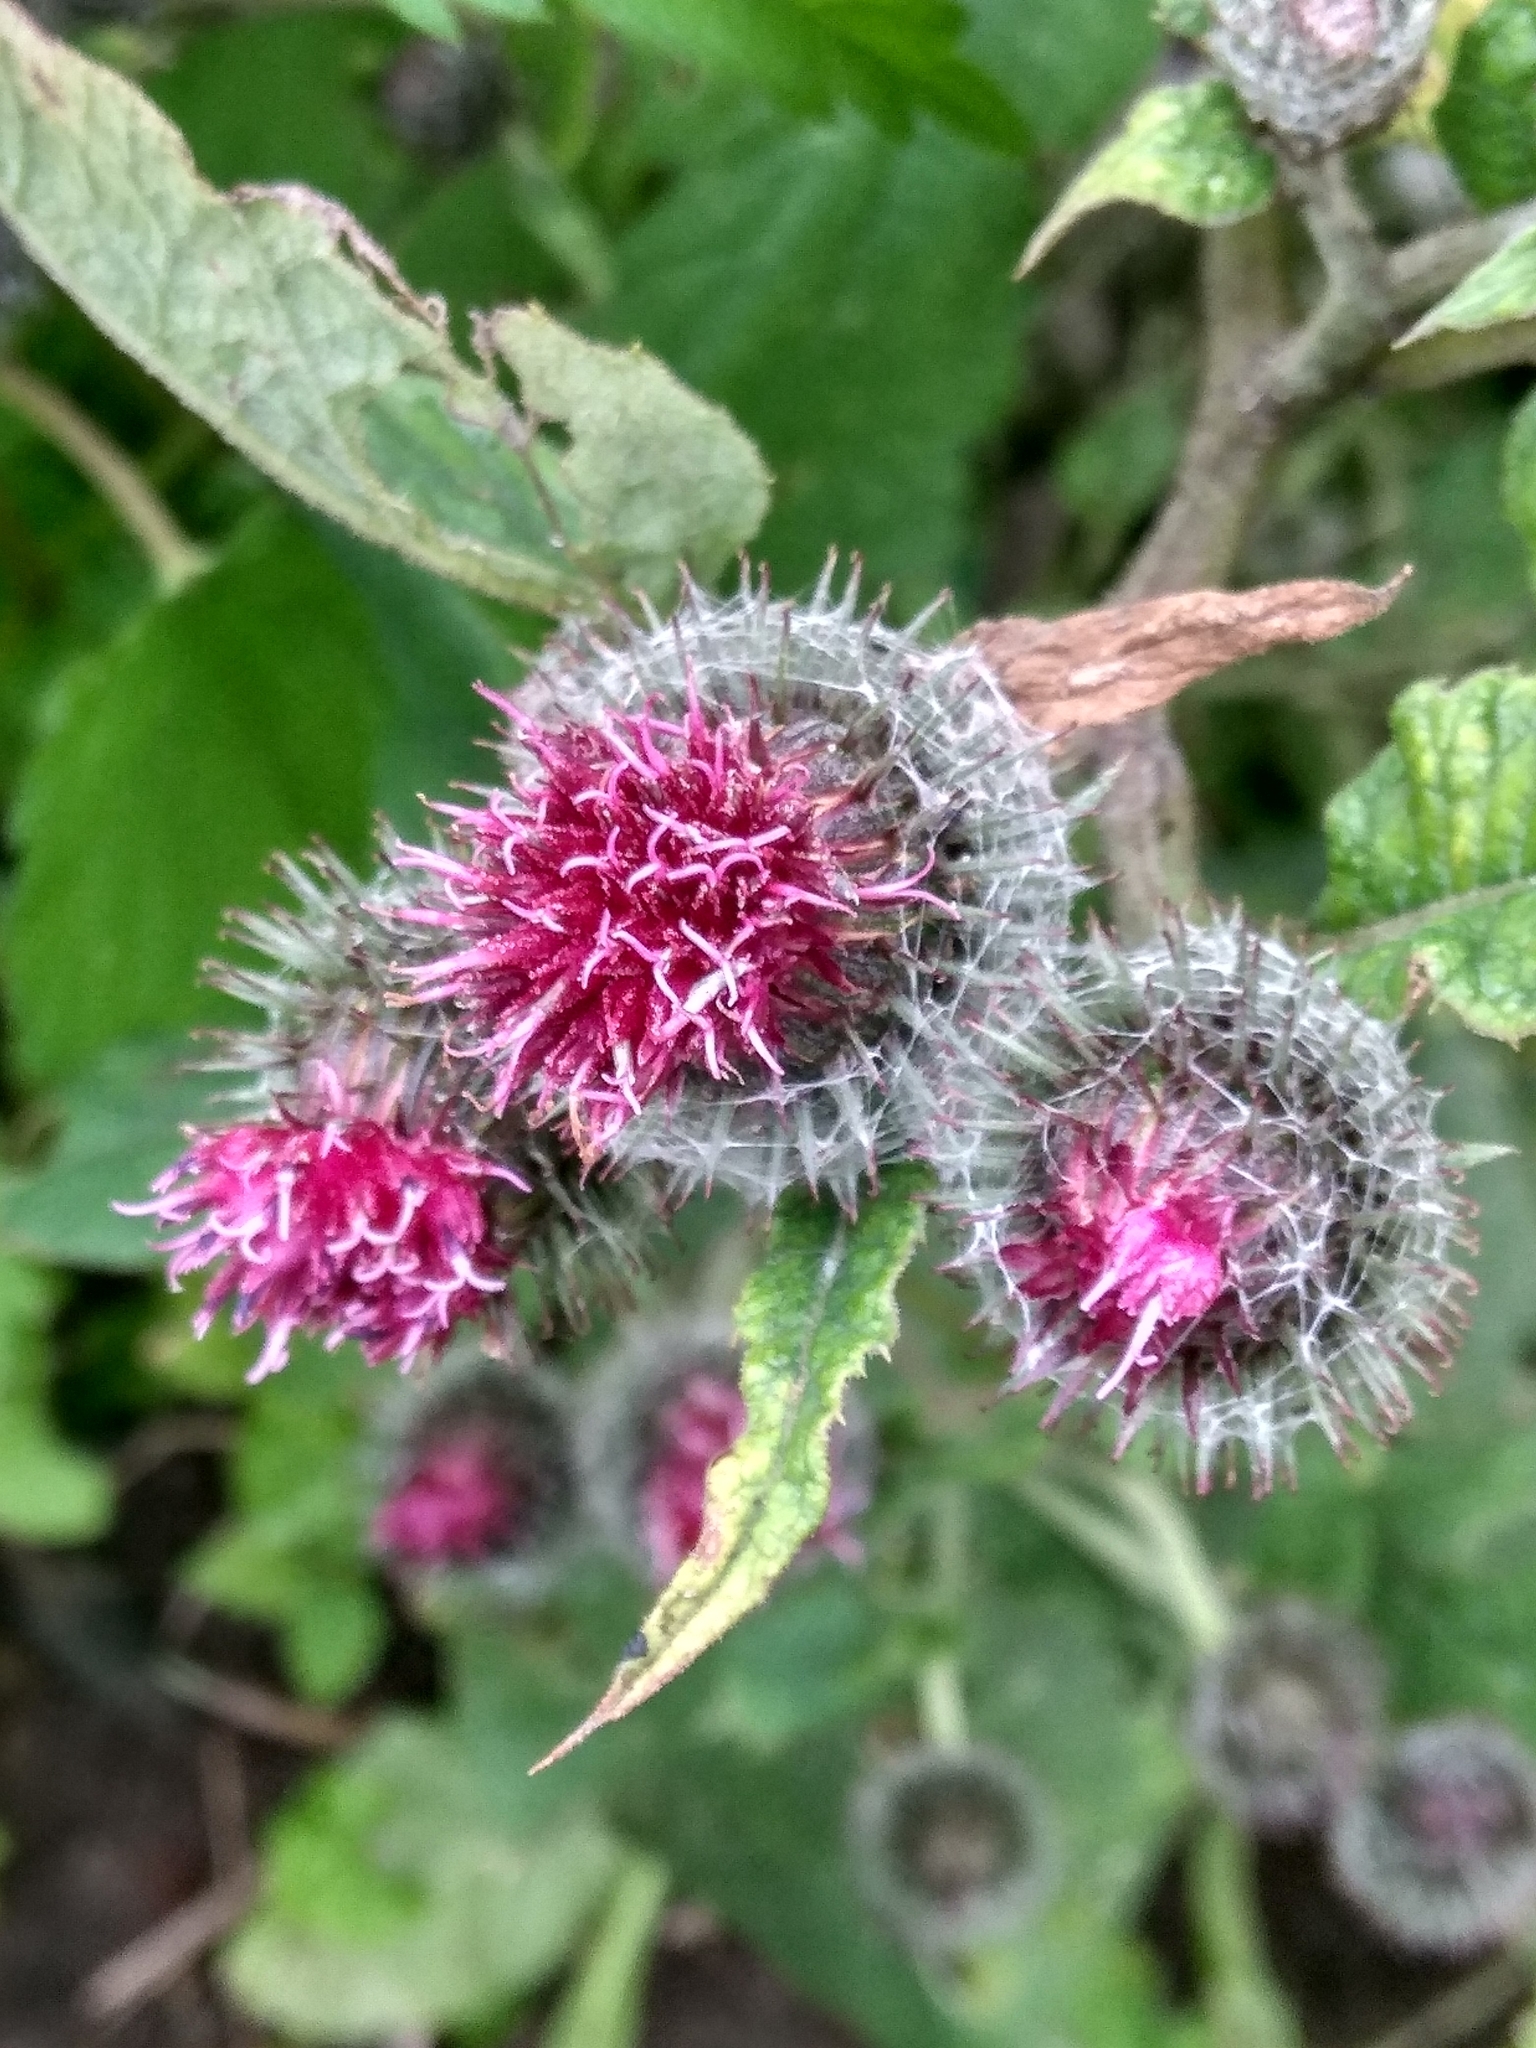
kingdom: Plantae
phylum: Tracheophyta
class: Magnoliopsida
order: Asterales
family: Asteraceae
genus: Arctium
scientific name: Arctium tomentosum
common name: Woolly burdock
